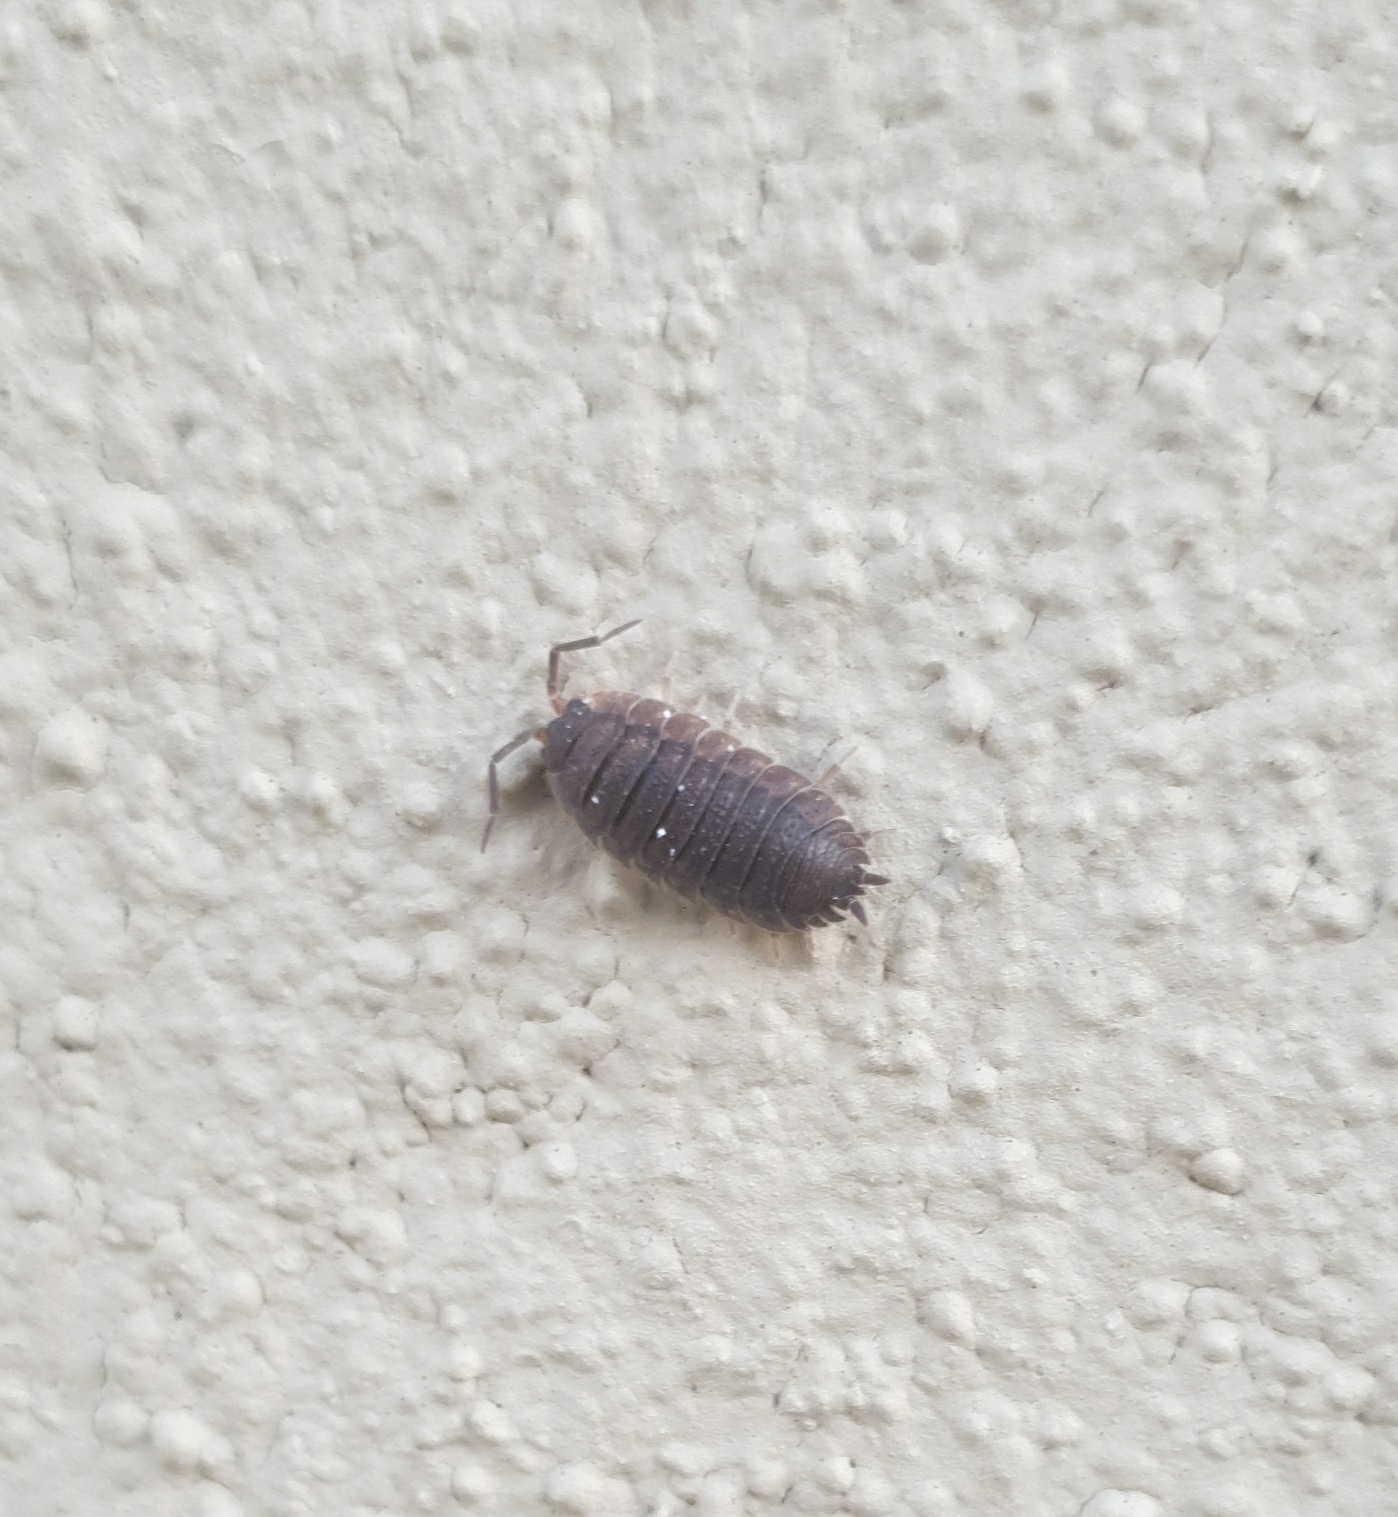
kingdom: Animalia
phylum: Arthropoda
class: Malacostraca
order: Isopoda
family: Porcellionidae
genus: Porcellio
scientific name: Porcellio scaber
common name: Common rough woodlouse
